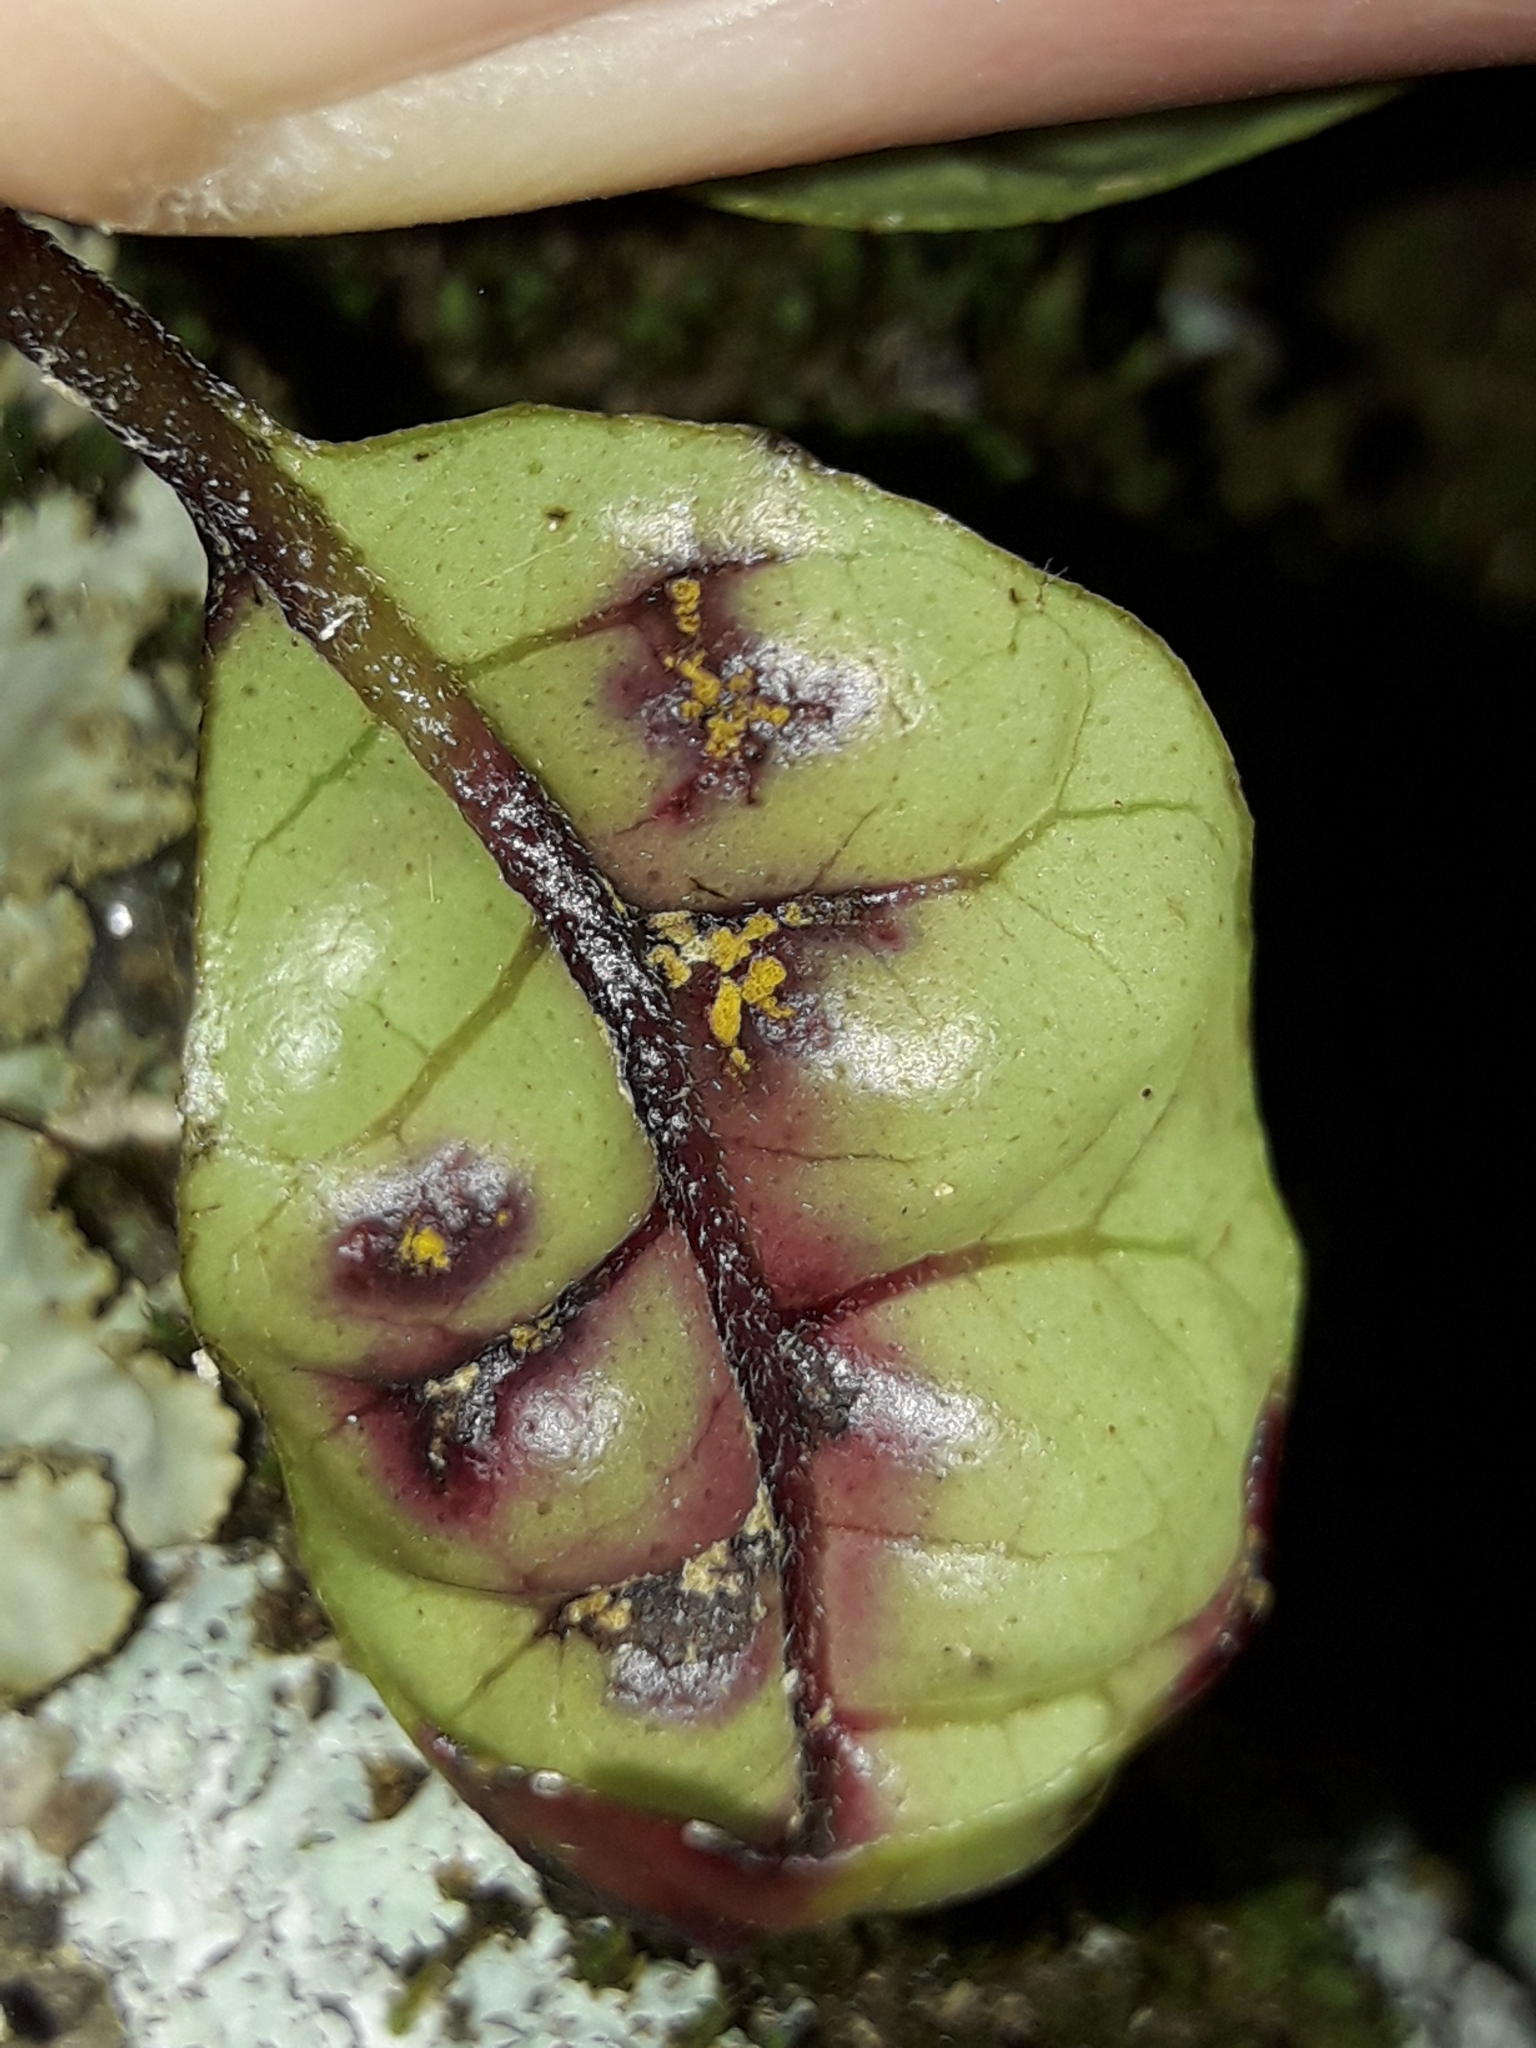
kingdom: Fungi
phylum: Basidiomycota
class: Pucciniomycetes
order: Pucciniales
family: Sphaerophragmiaceae
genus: Austropuccinia
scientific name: Austropuccinia psidii
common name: Myrtle rust
